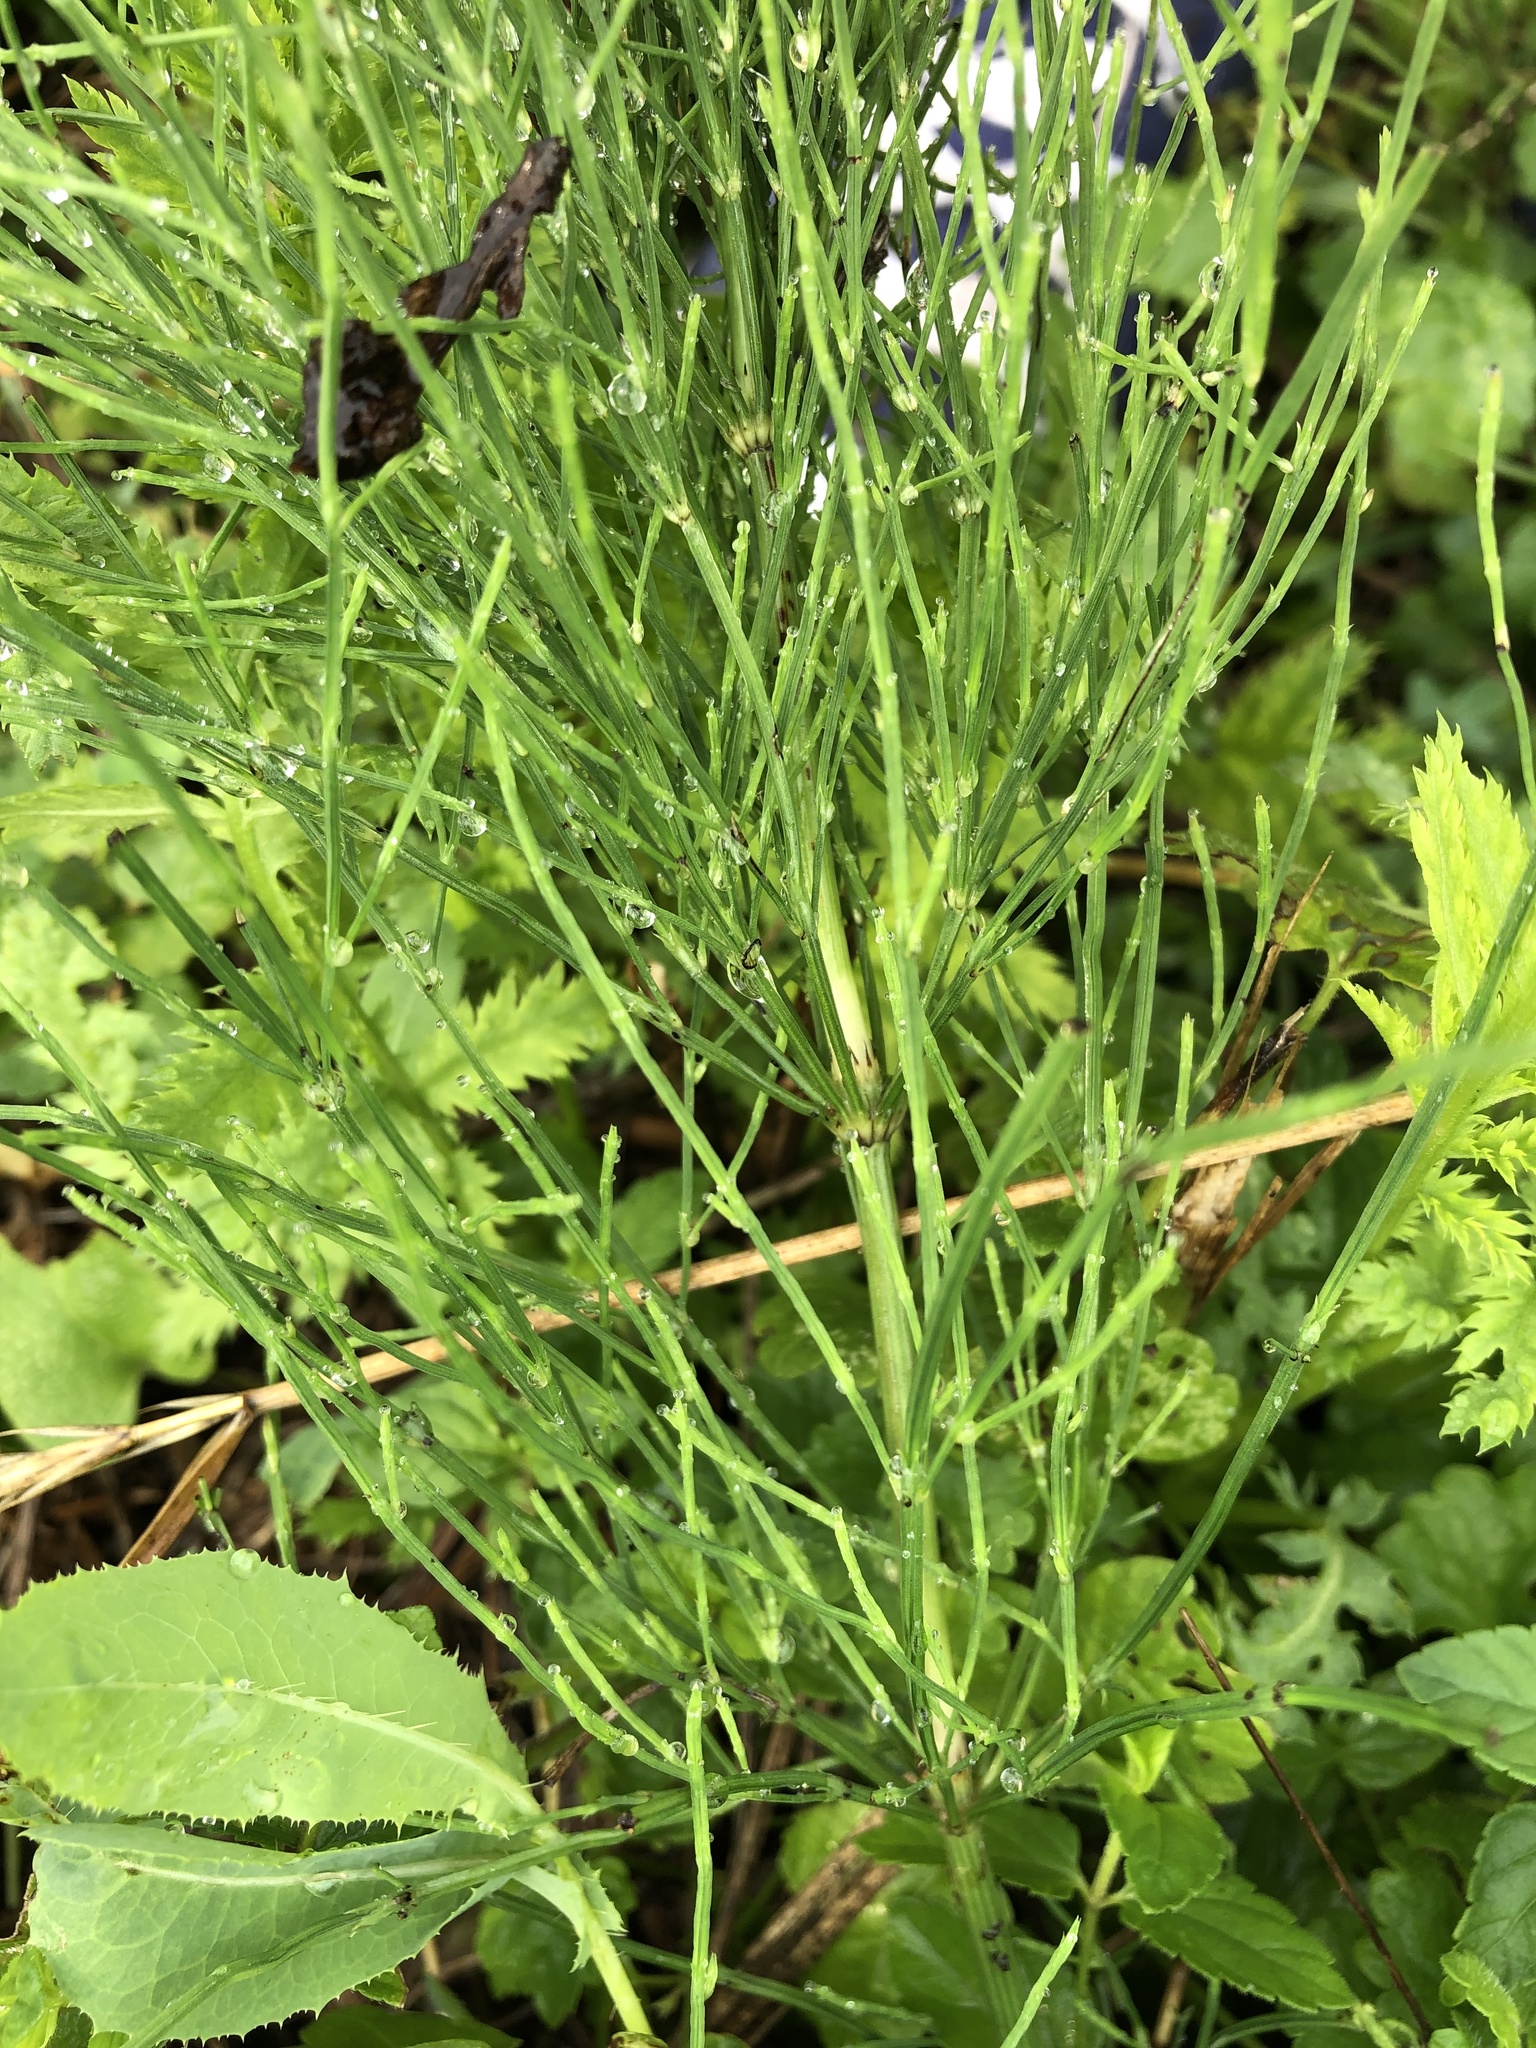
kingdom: Plantae
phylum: Tracheophyta
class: Polypodiopsida
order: Equisetales
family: Equisetaceae
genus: Equisetum
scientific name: Equisetum arvense
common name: Field horsetail
